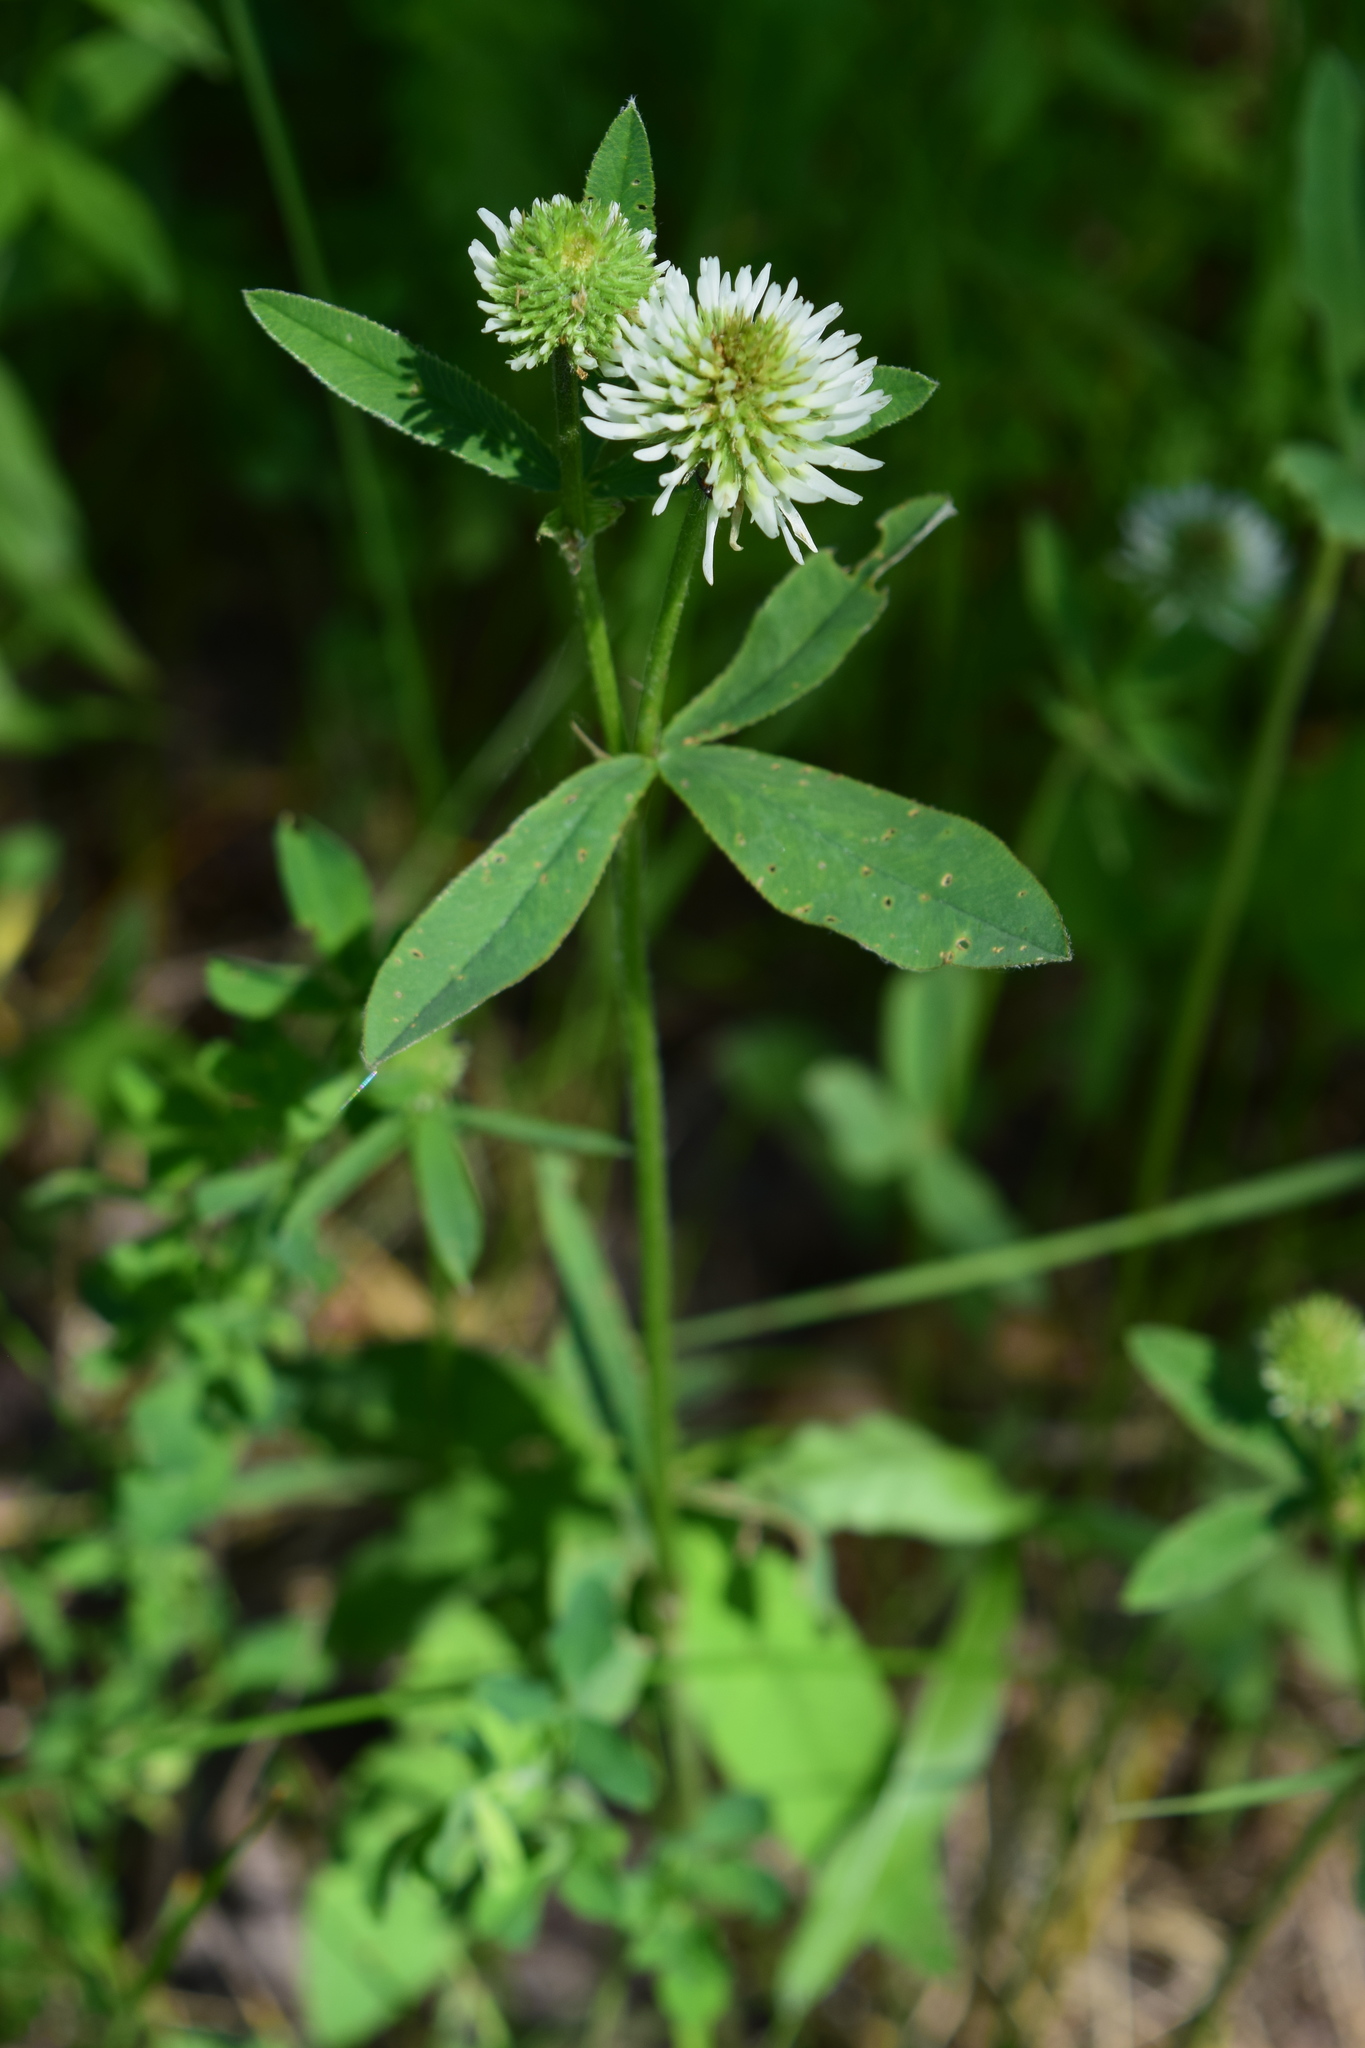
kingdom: Plantae
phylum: Tracheophyta
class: Magnoliopsida
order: Fabales
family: Fabaceae
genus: Trifolium
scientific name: Trifolium montanum
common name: Mountain clover
